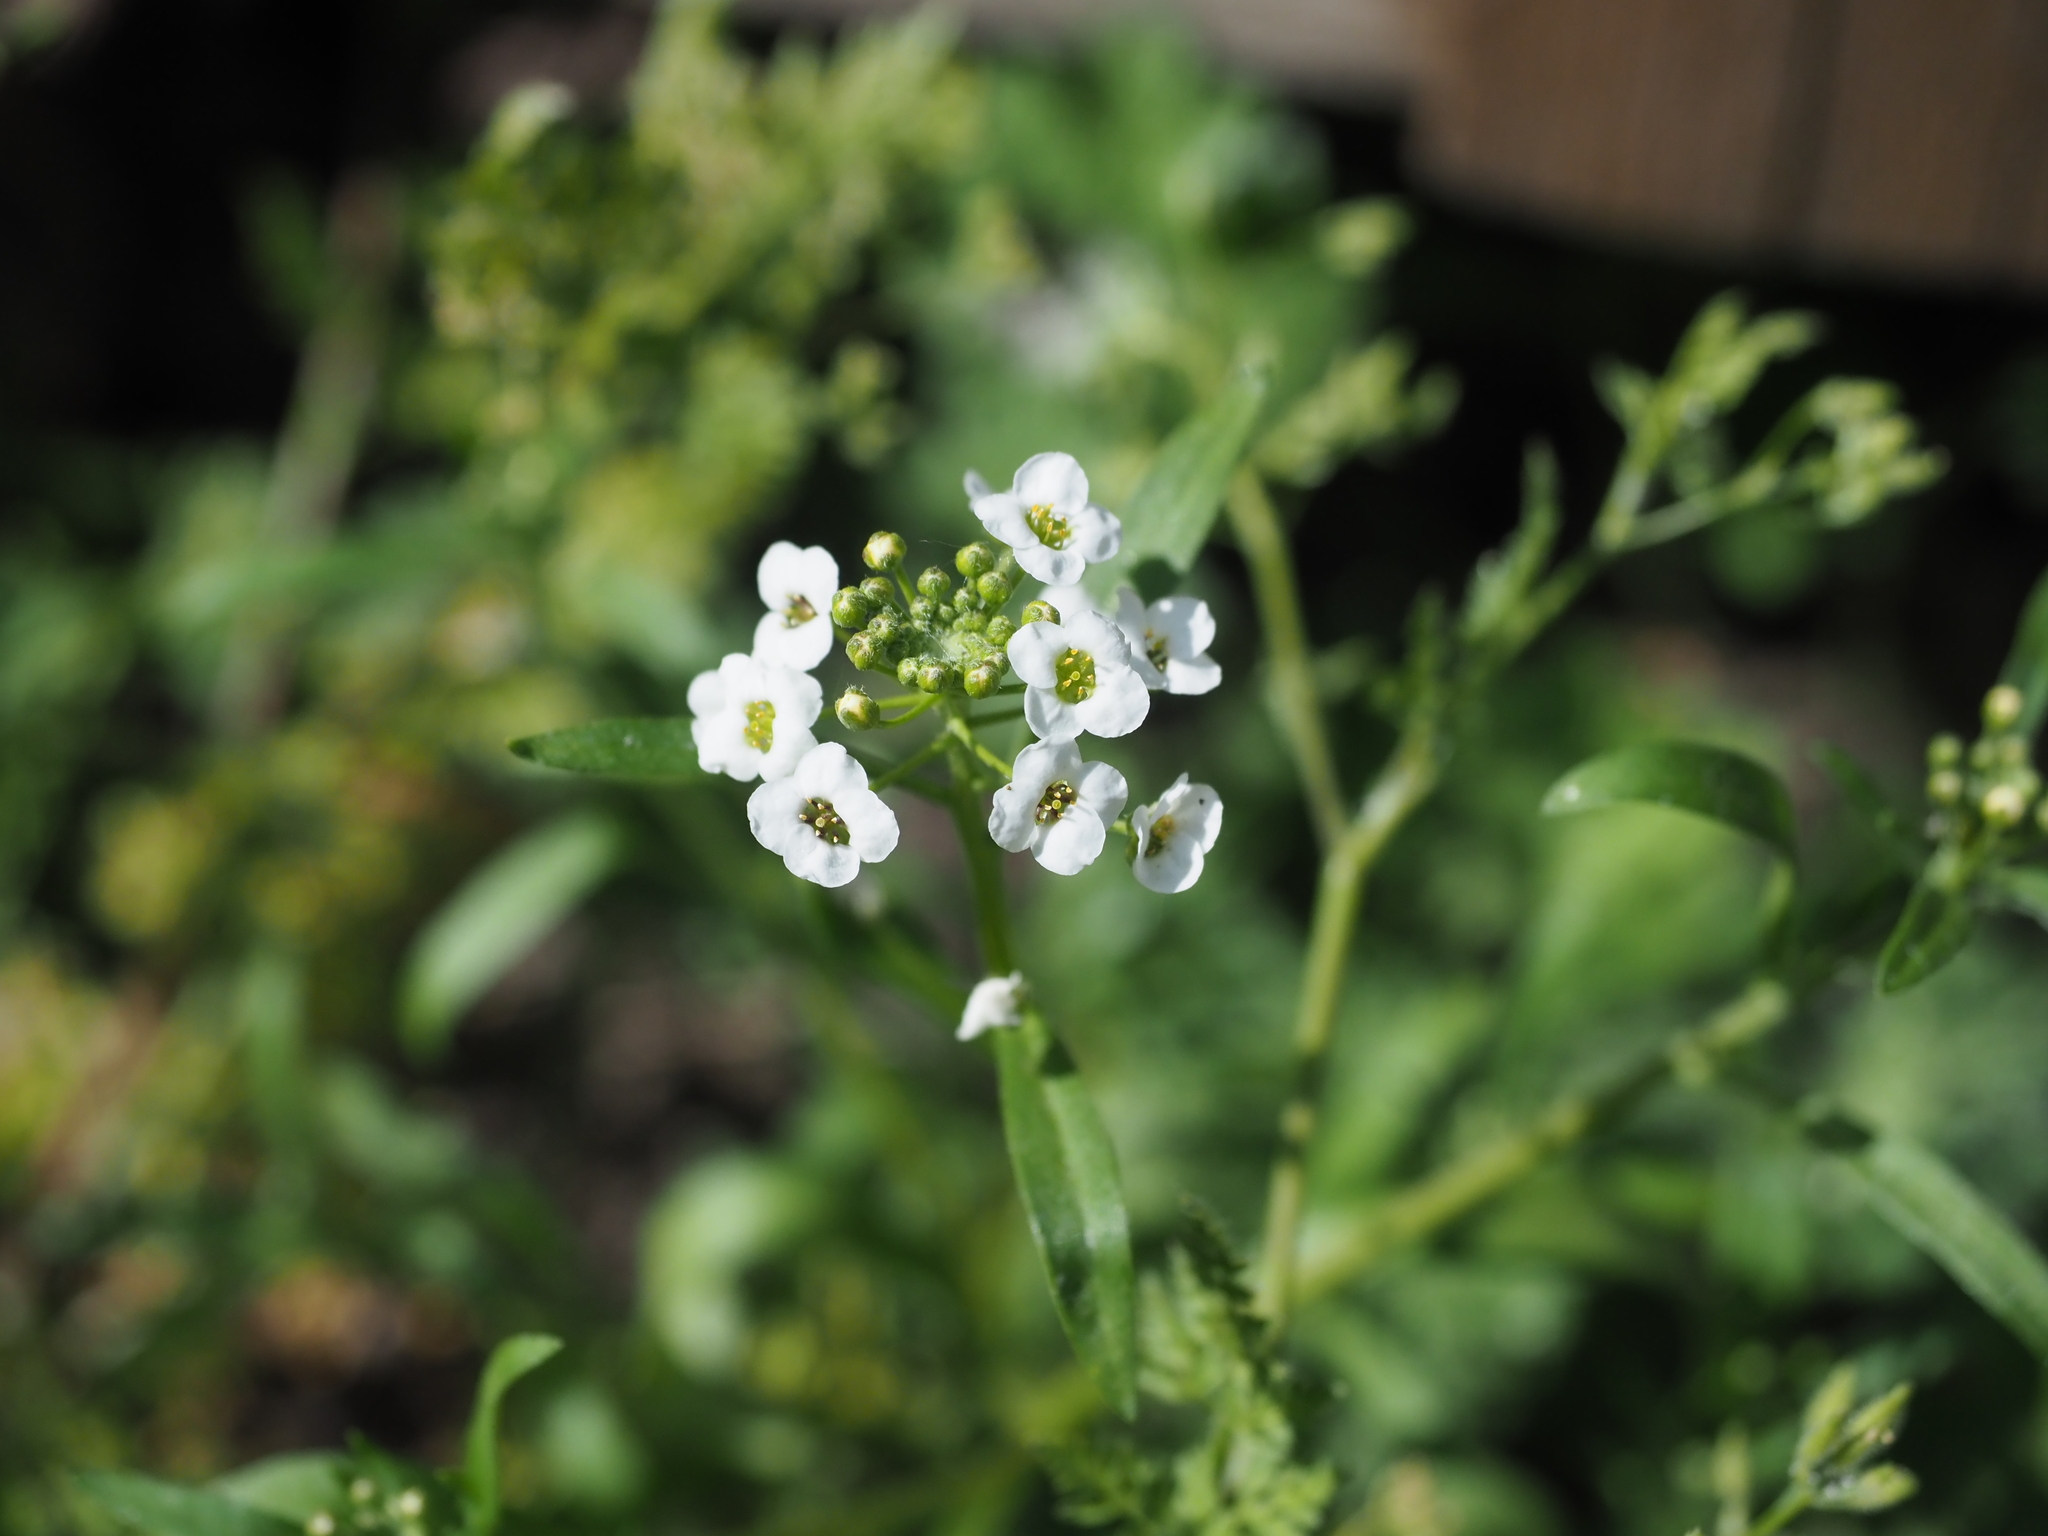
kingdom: Plantae
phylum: Tracheophyta
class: Magnoliopsida
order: Brassicales
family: Brassicaceae
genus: Lobularia
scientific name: Lobularia maritima
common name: Sweet alison
